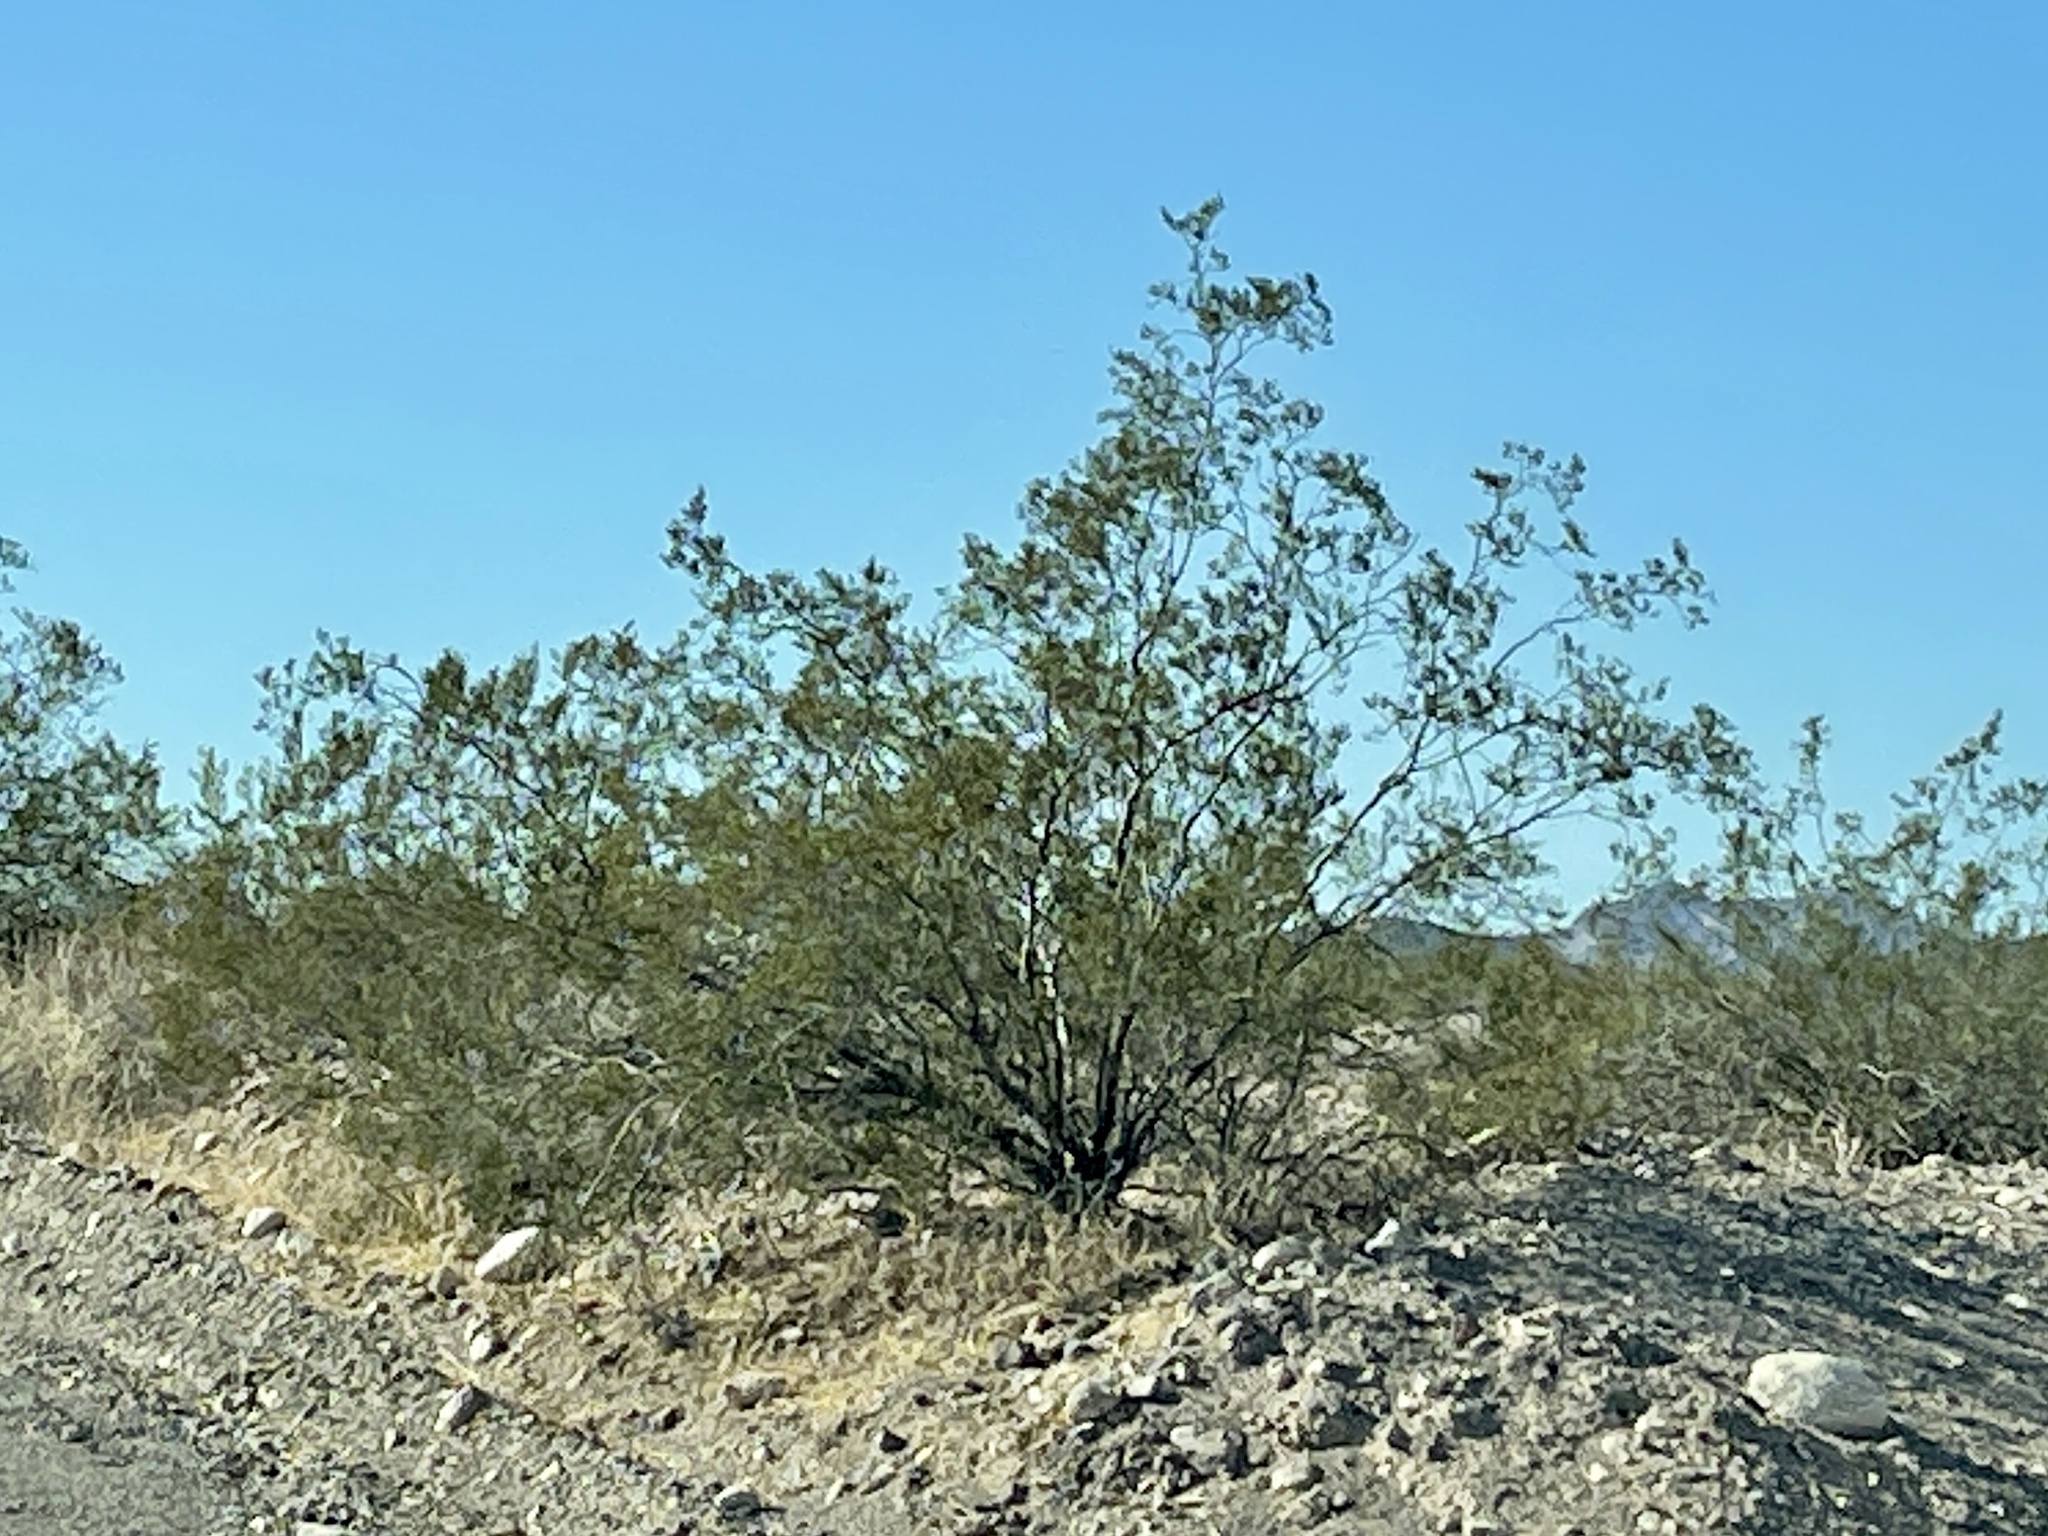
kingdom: Plantae
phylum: Tracheophyta
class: Magnoliopsida
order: Zygophyllales
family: Zygophyllaceae
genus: Larrea
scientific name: Larrea tridentata
